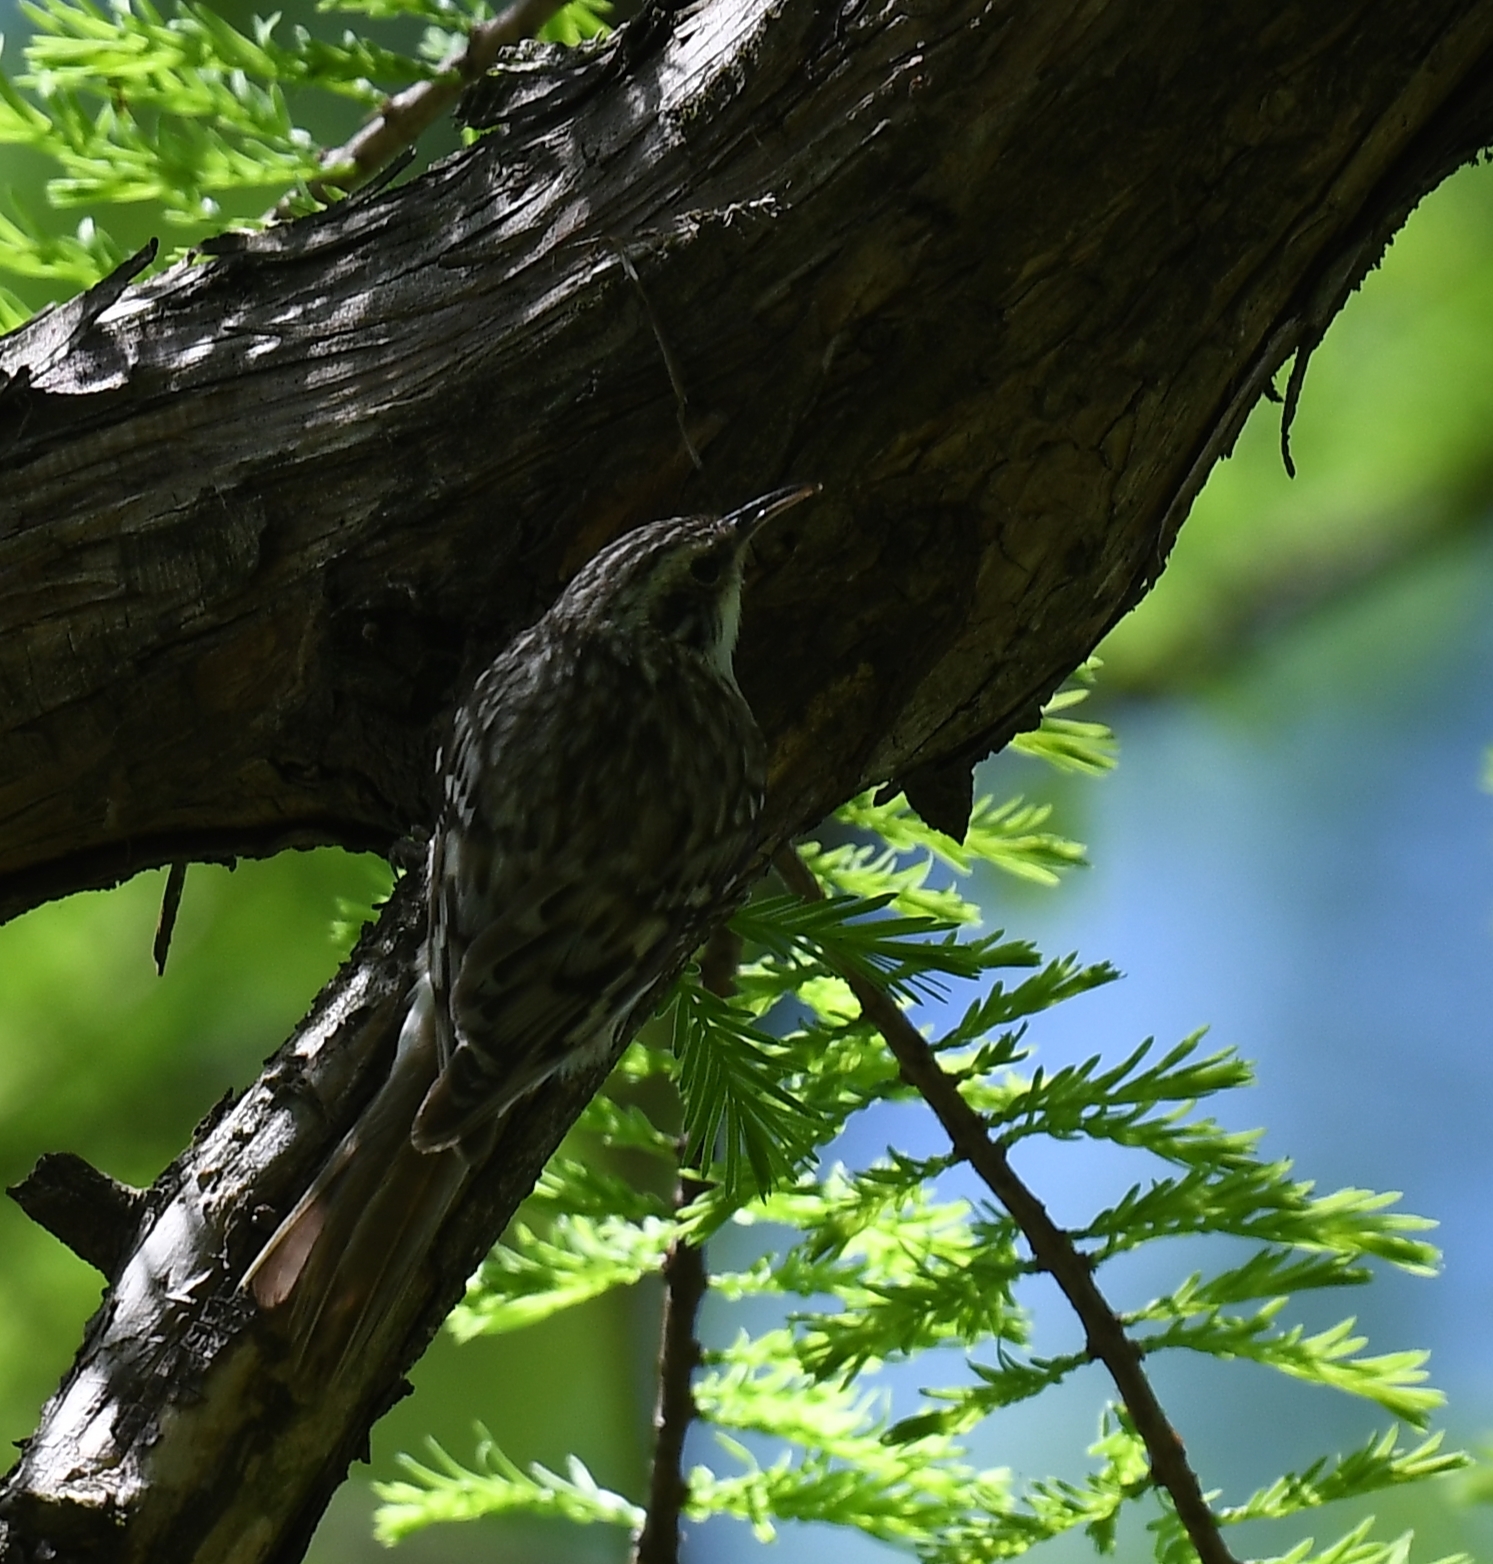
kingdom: Animalia
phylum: Chordata
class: Aves
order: Passeriformes
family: Certhiidae
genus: Certhia
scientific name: Certhia americana
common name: Brown creeper
